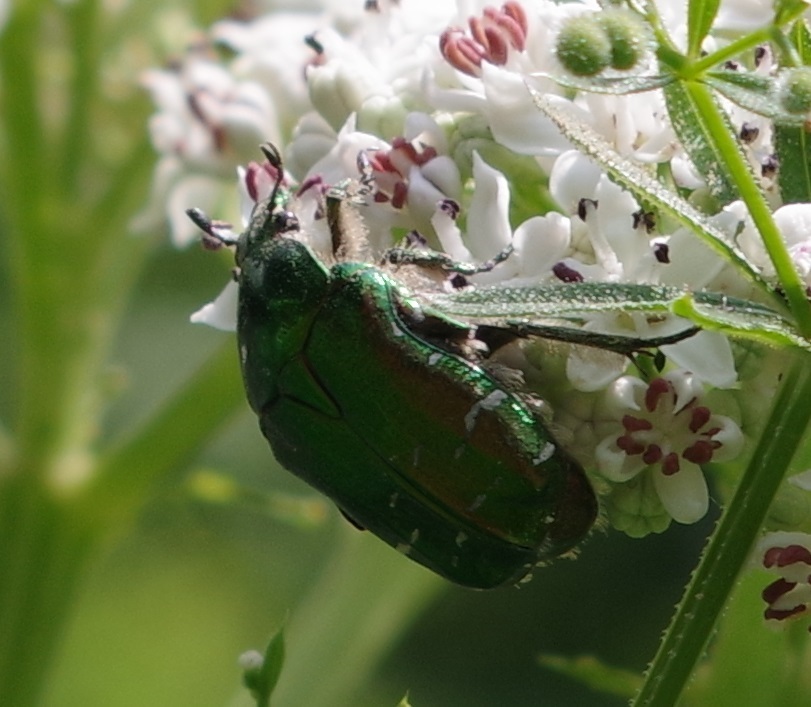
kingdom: Animalia
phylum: Arthropoda
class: Insecta
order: Coleoptera
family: Scarabaeidae
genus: Cetonia
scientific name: Cetonia aurata
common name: Rose chafer
